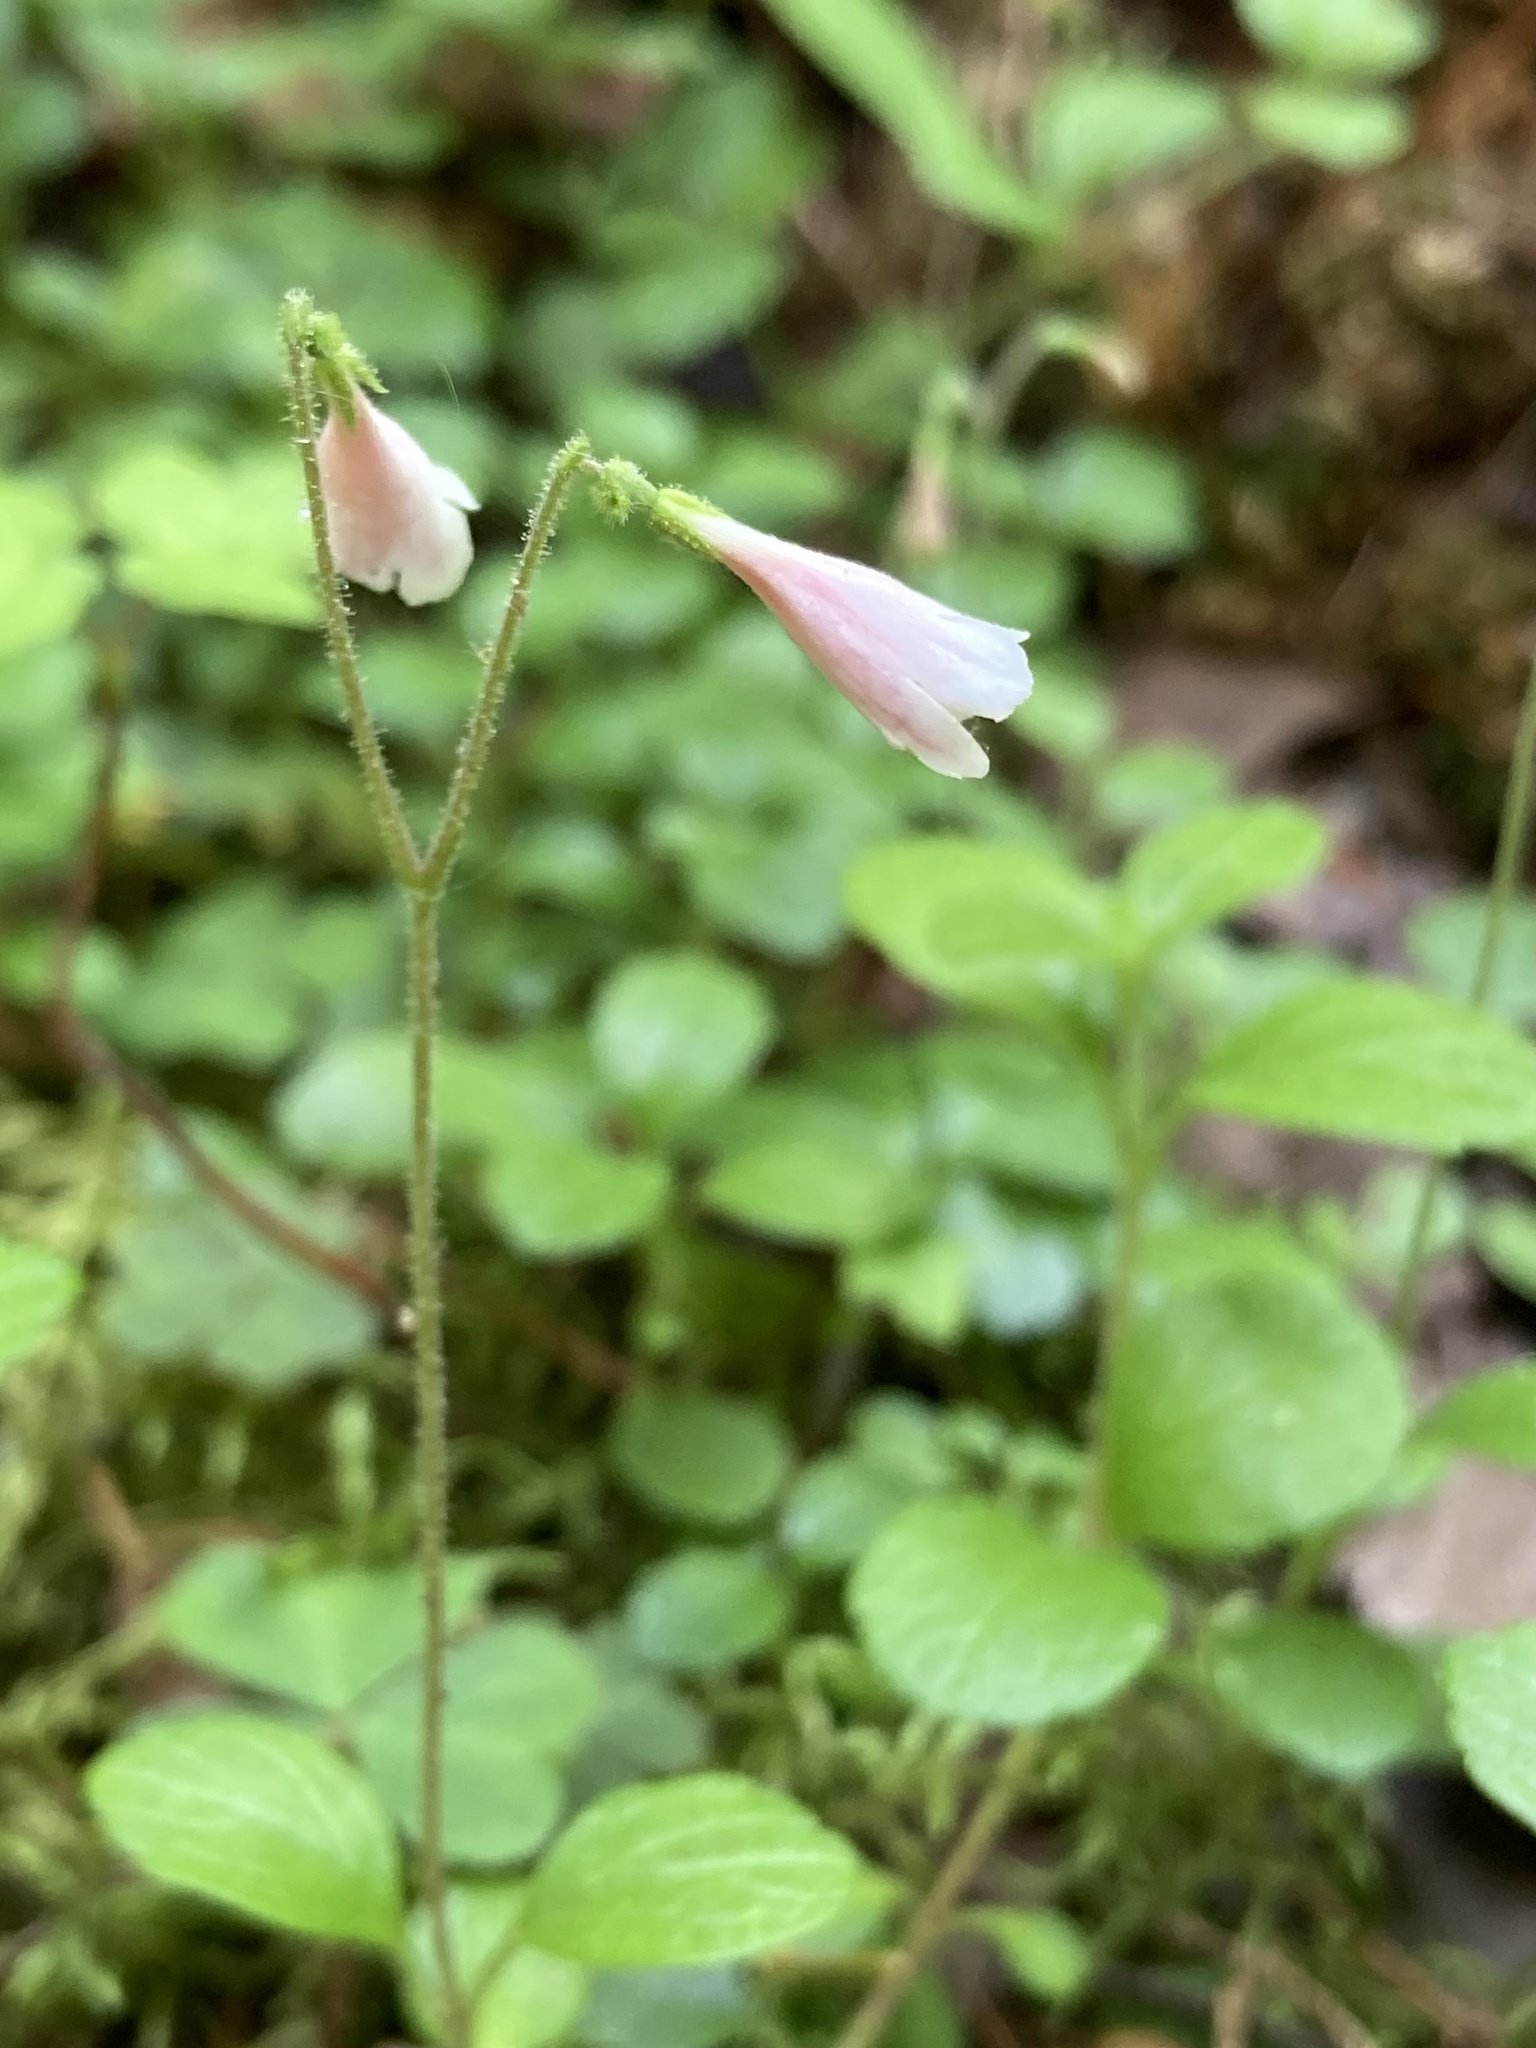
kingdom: Plantae
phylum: Tracheophyta
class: Magnoliopsida
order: Dipsacales
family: Caprifoliaceae
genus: Linnaea
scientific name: Linnaea borealis
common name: Twinflower
